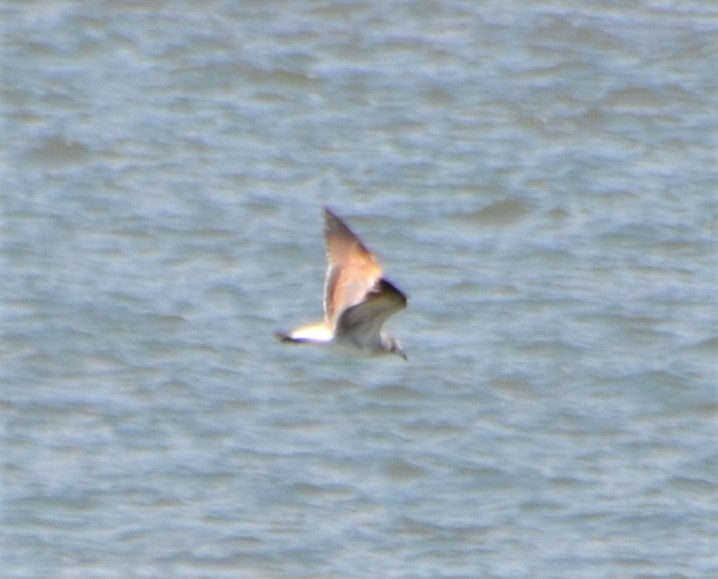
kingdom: Animalia
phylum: Chordata
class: Aves
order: Charadriiformes
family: Laridae
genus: Leucophaeus
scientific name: Leucophaeus atricilla
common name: Laughing gull
